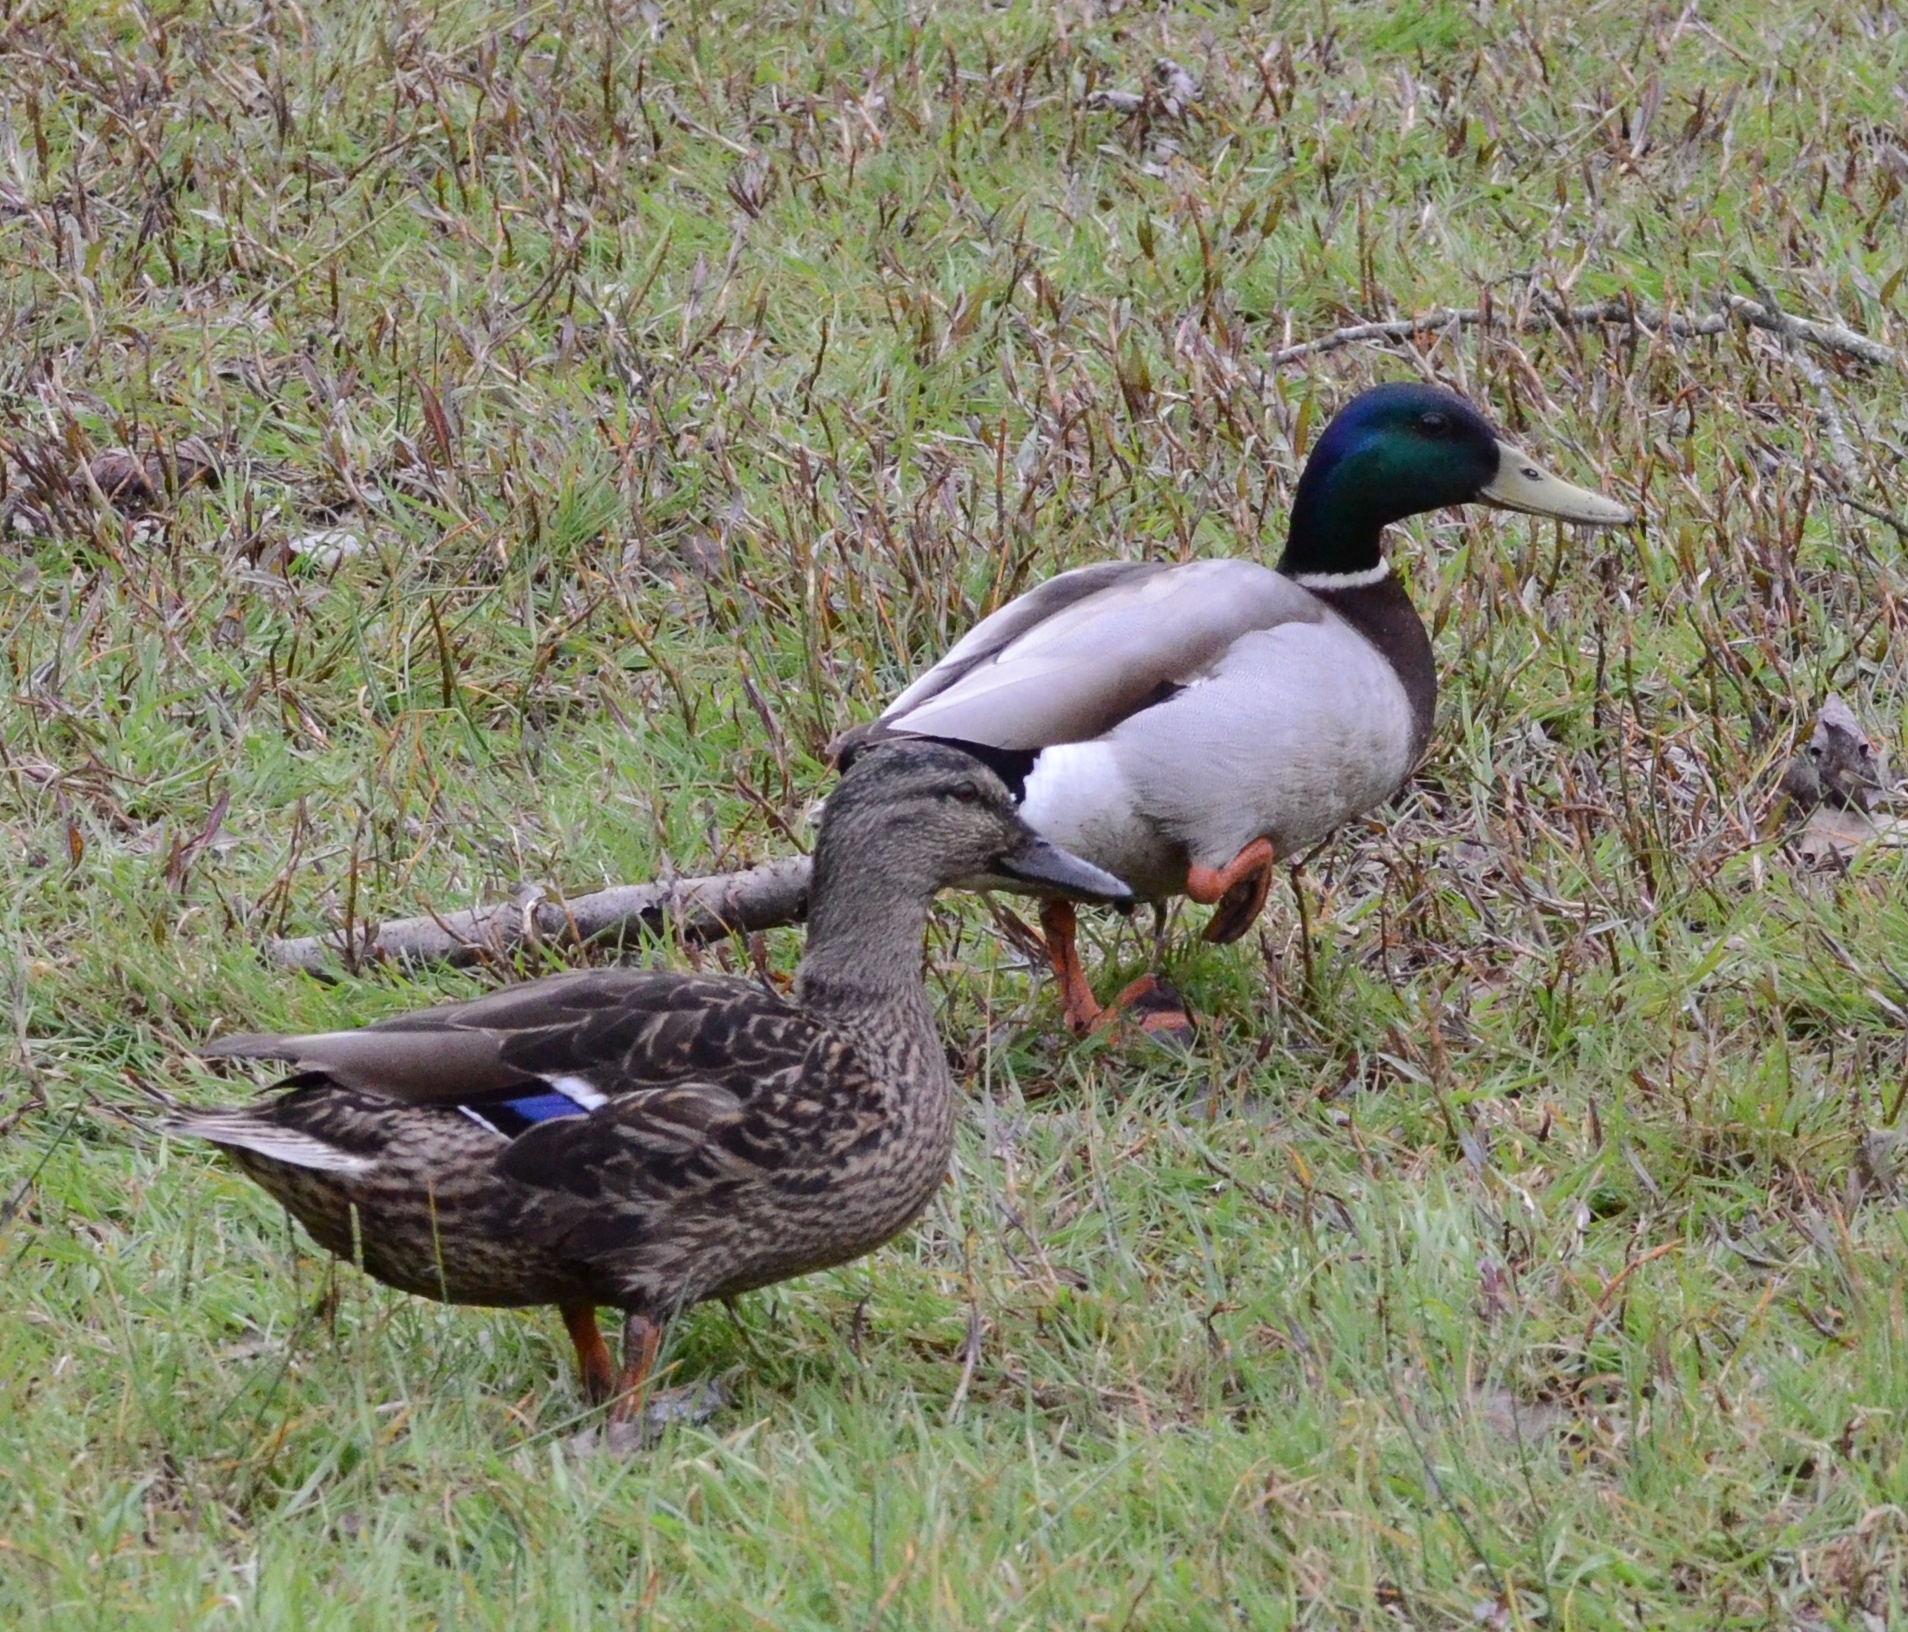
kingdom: Animalia
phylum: Chordata
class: Aves
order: Anseriformes
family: Anatidae
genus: Anas
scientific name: Anas platyrhynchos
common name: Mallard
